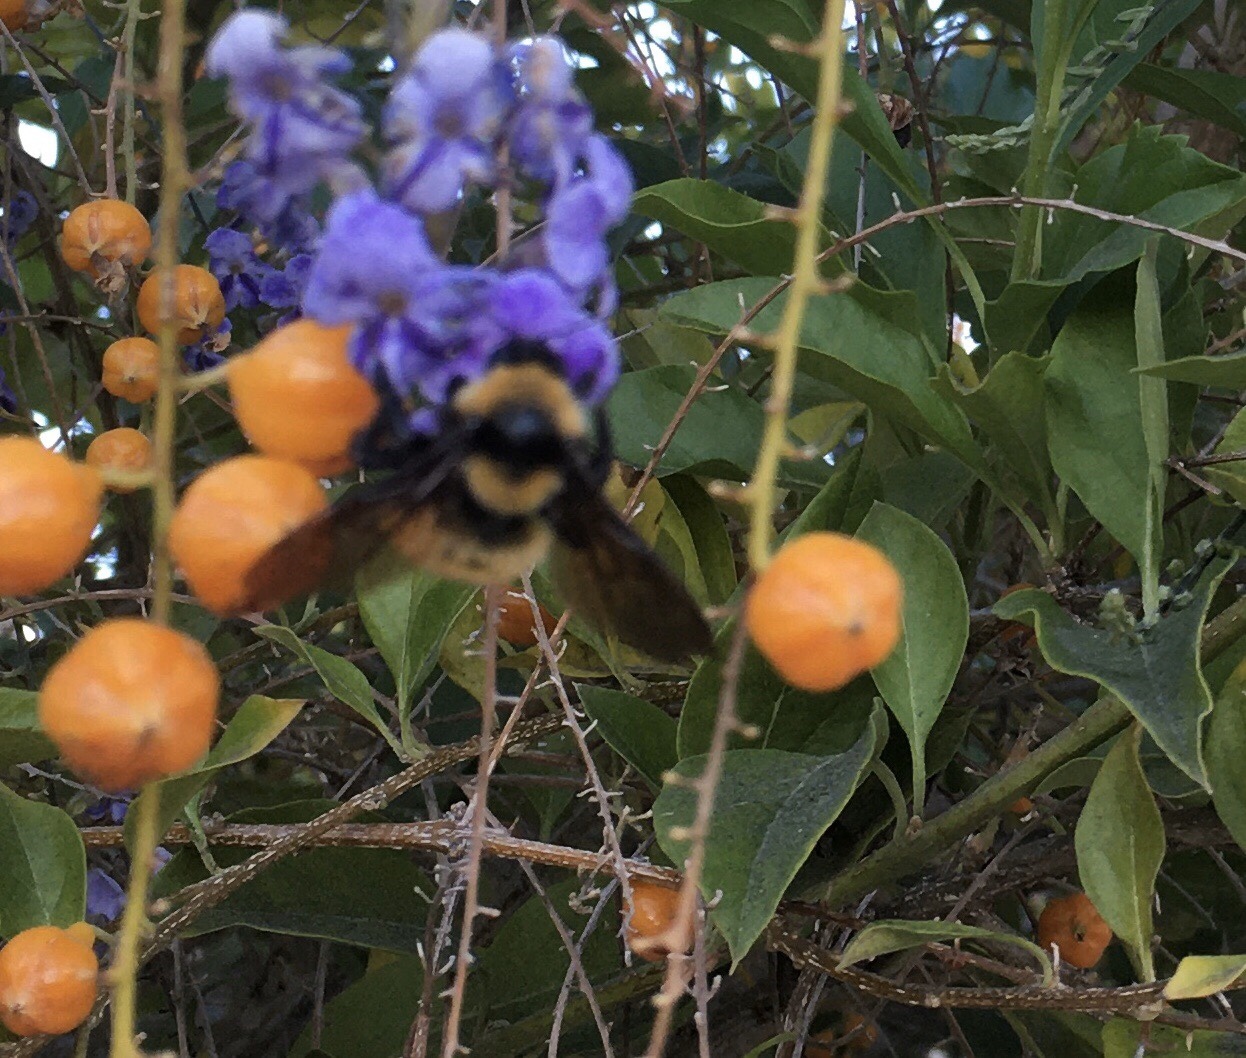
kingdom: Animalia
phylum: Arthropoda
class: Insecta
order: Hymenoptera
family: Apidae
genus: Bombus
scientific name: Bombus sonorus
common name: Sonoran bumble bee
